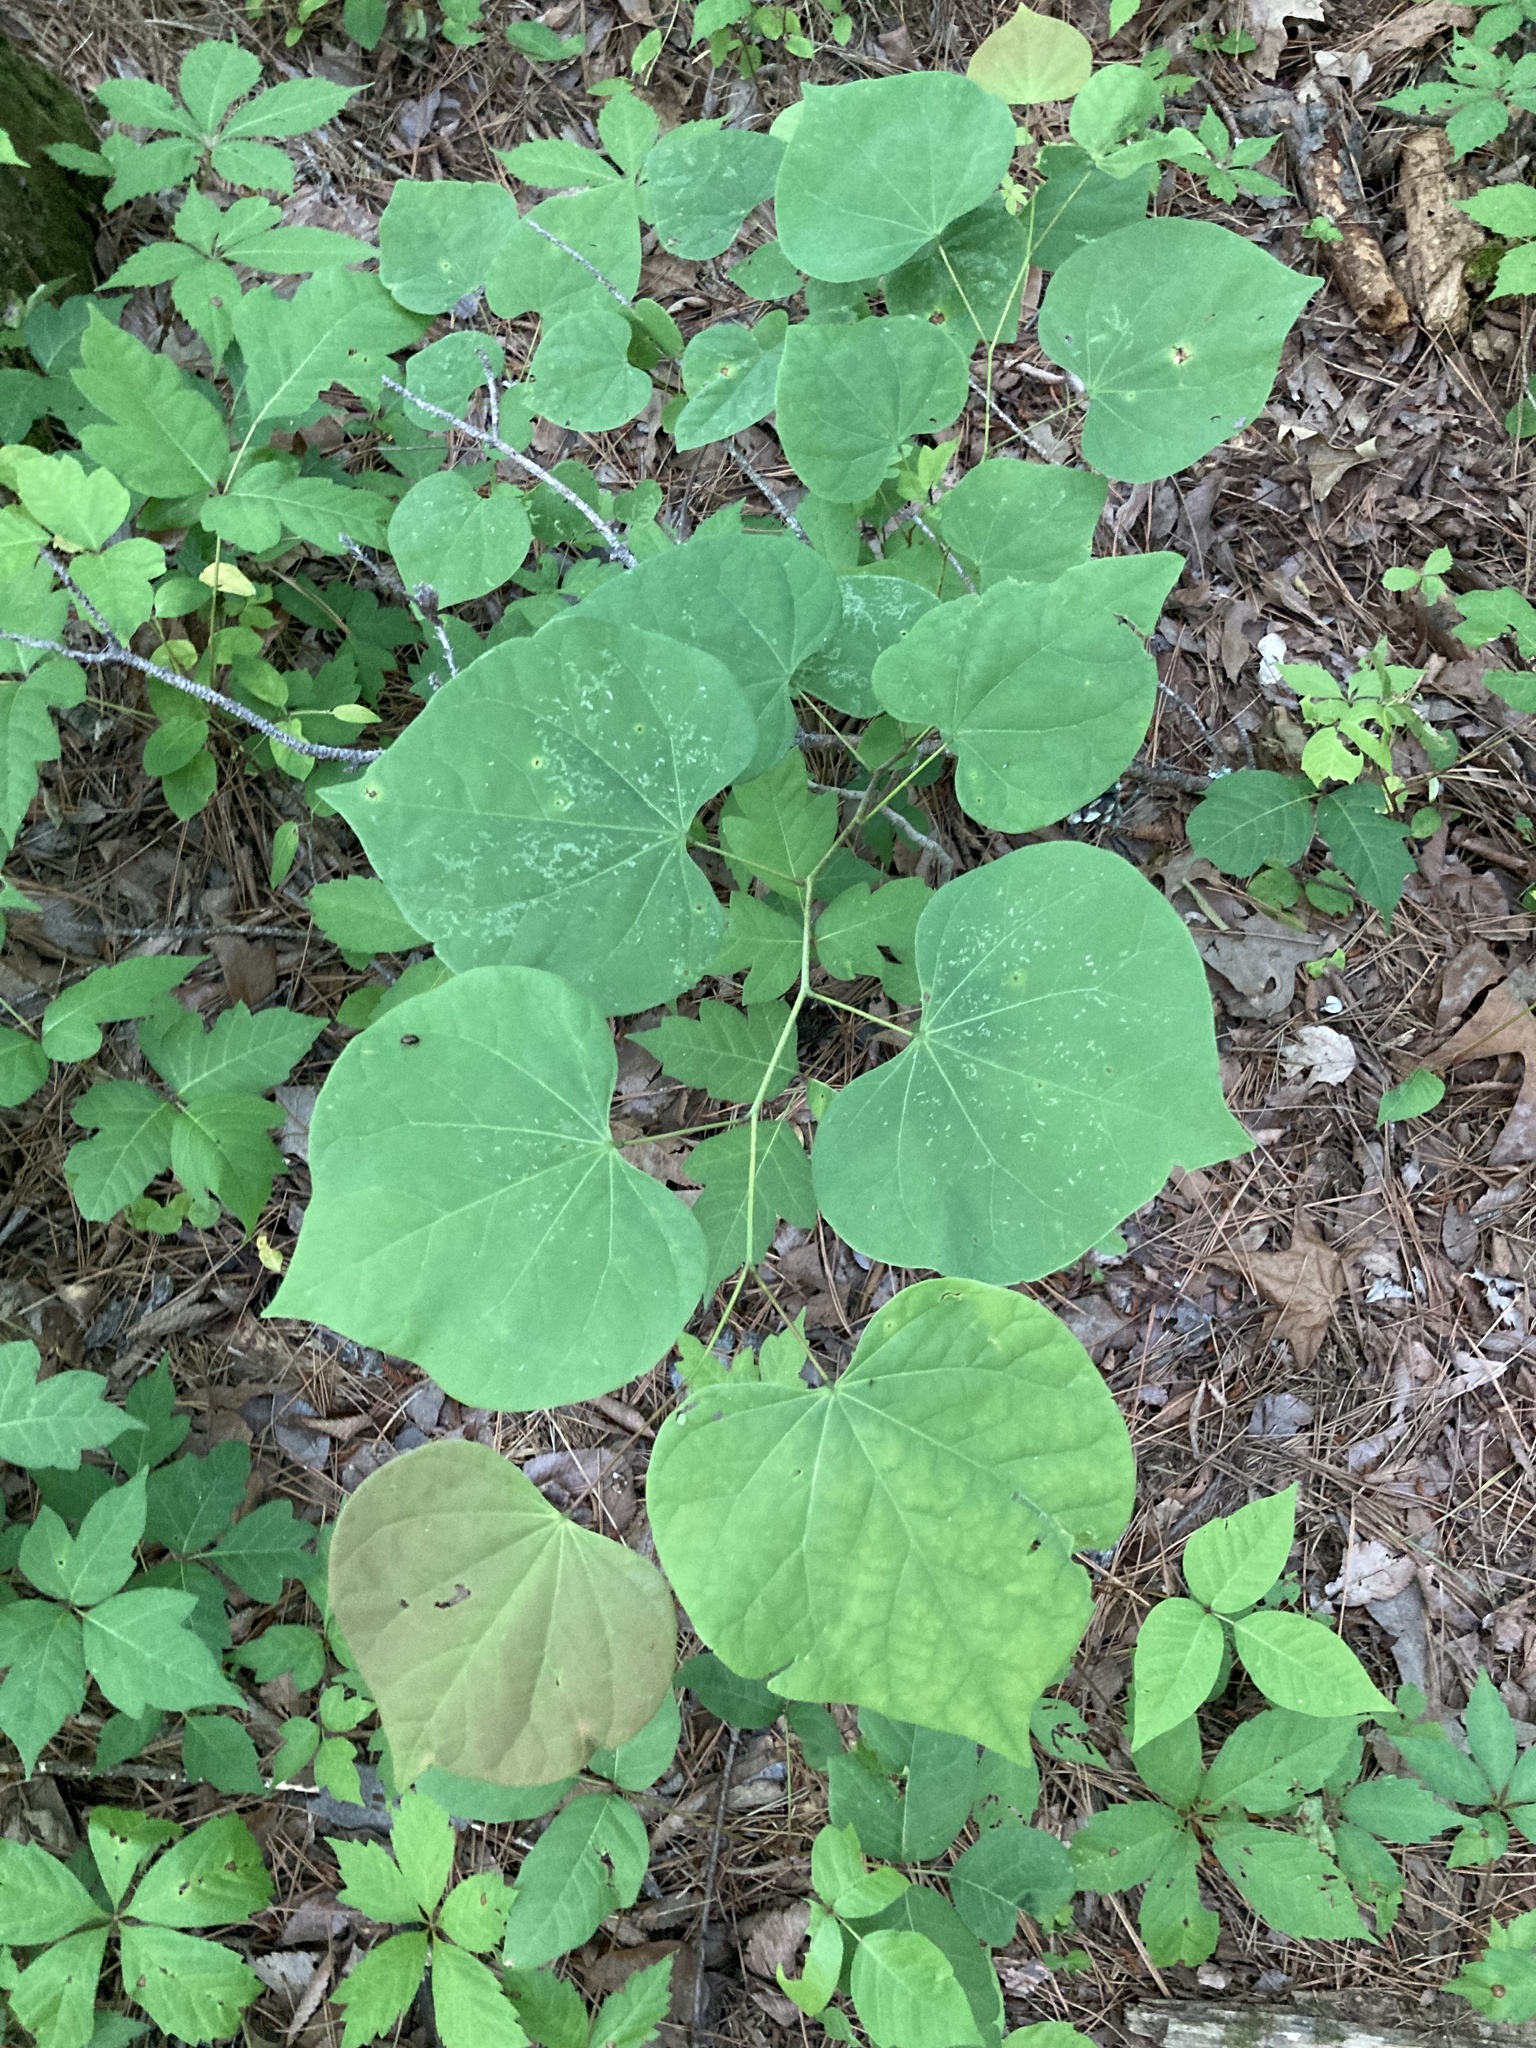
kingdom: Plantae
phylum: Tracheophyta
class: Magnoliopsida
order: Fabales
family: Fabaceae
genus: Cercis
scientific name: Cercis canadensis
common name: Eastern redbud
